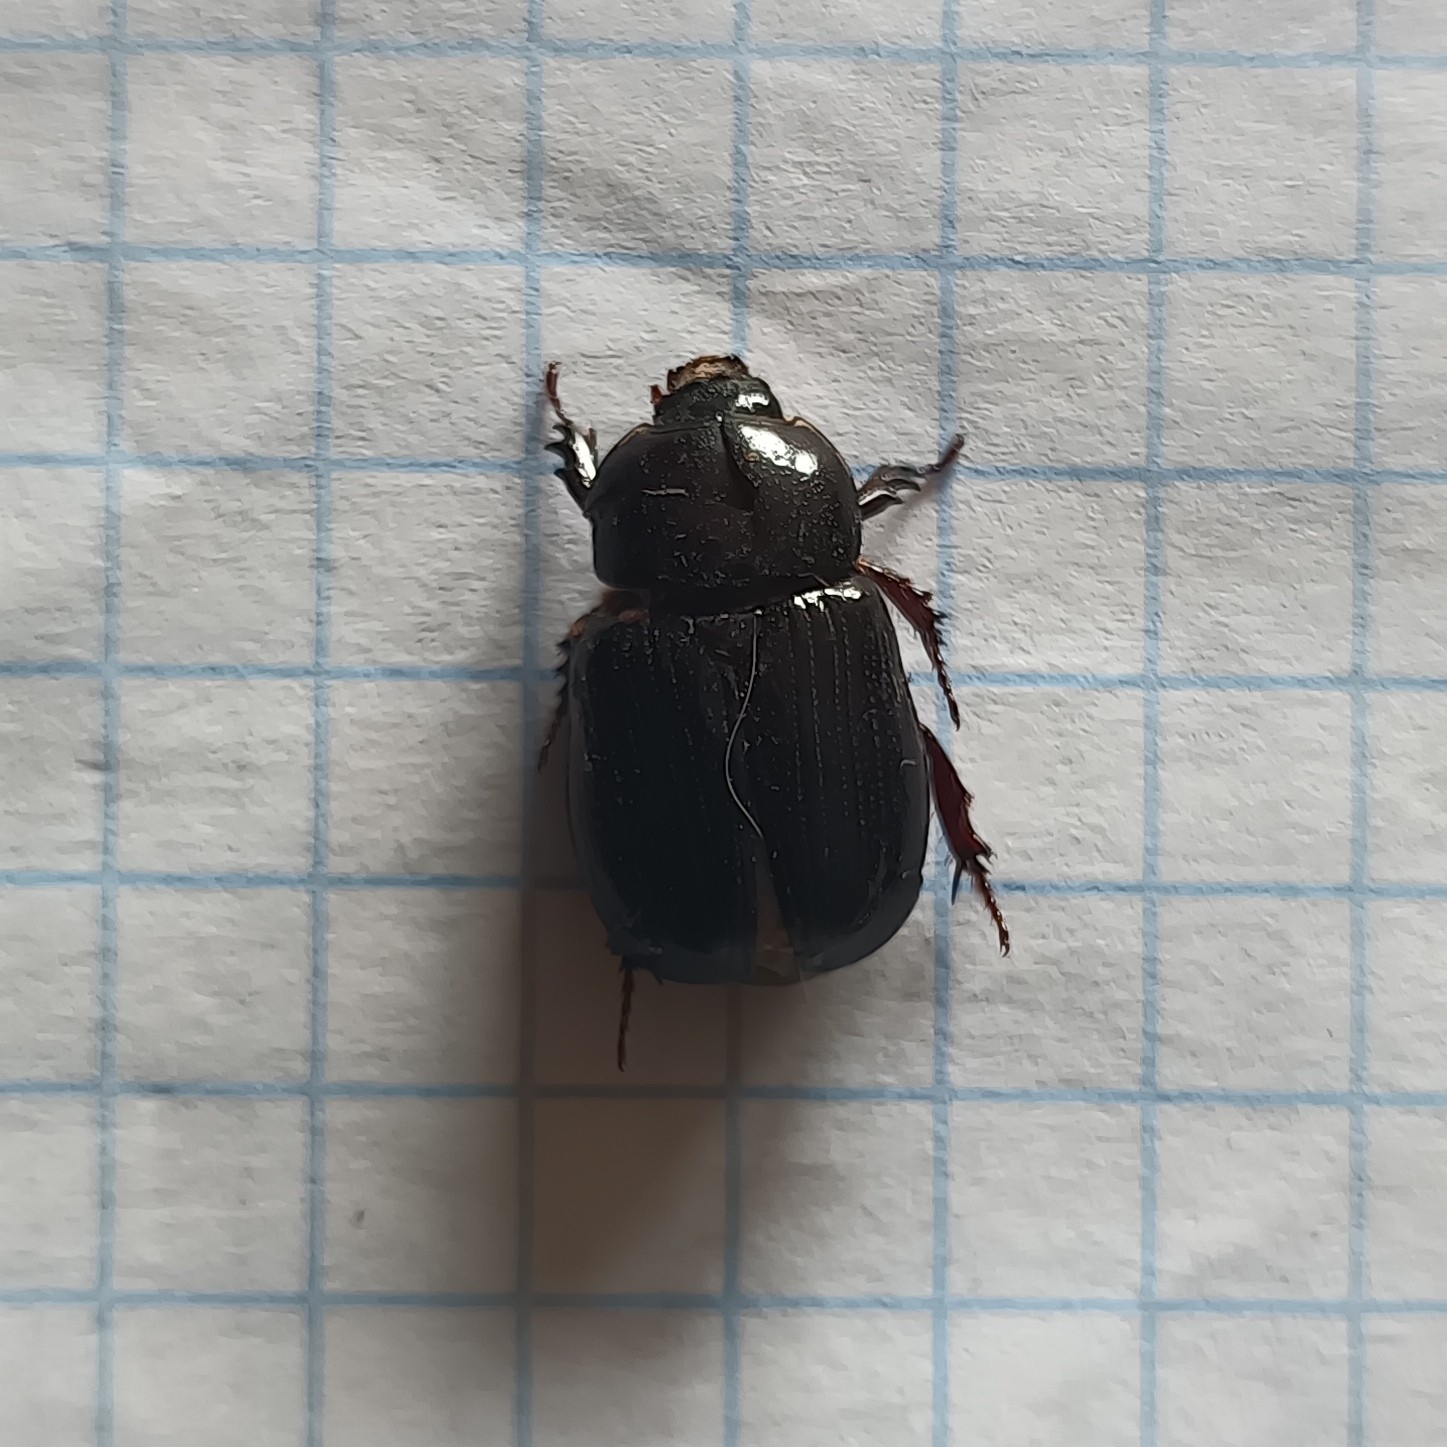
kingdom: Animalia
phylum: Arthropoda
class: Insecta
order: Coleoptera
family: Scarabaeidae
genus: Xyloryctes
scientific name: Xyloryctes thestalus
